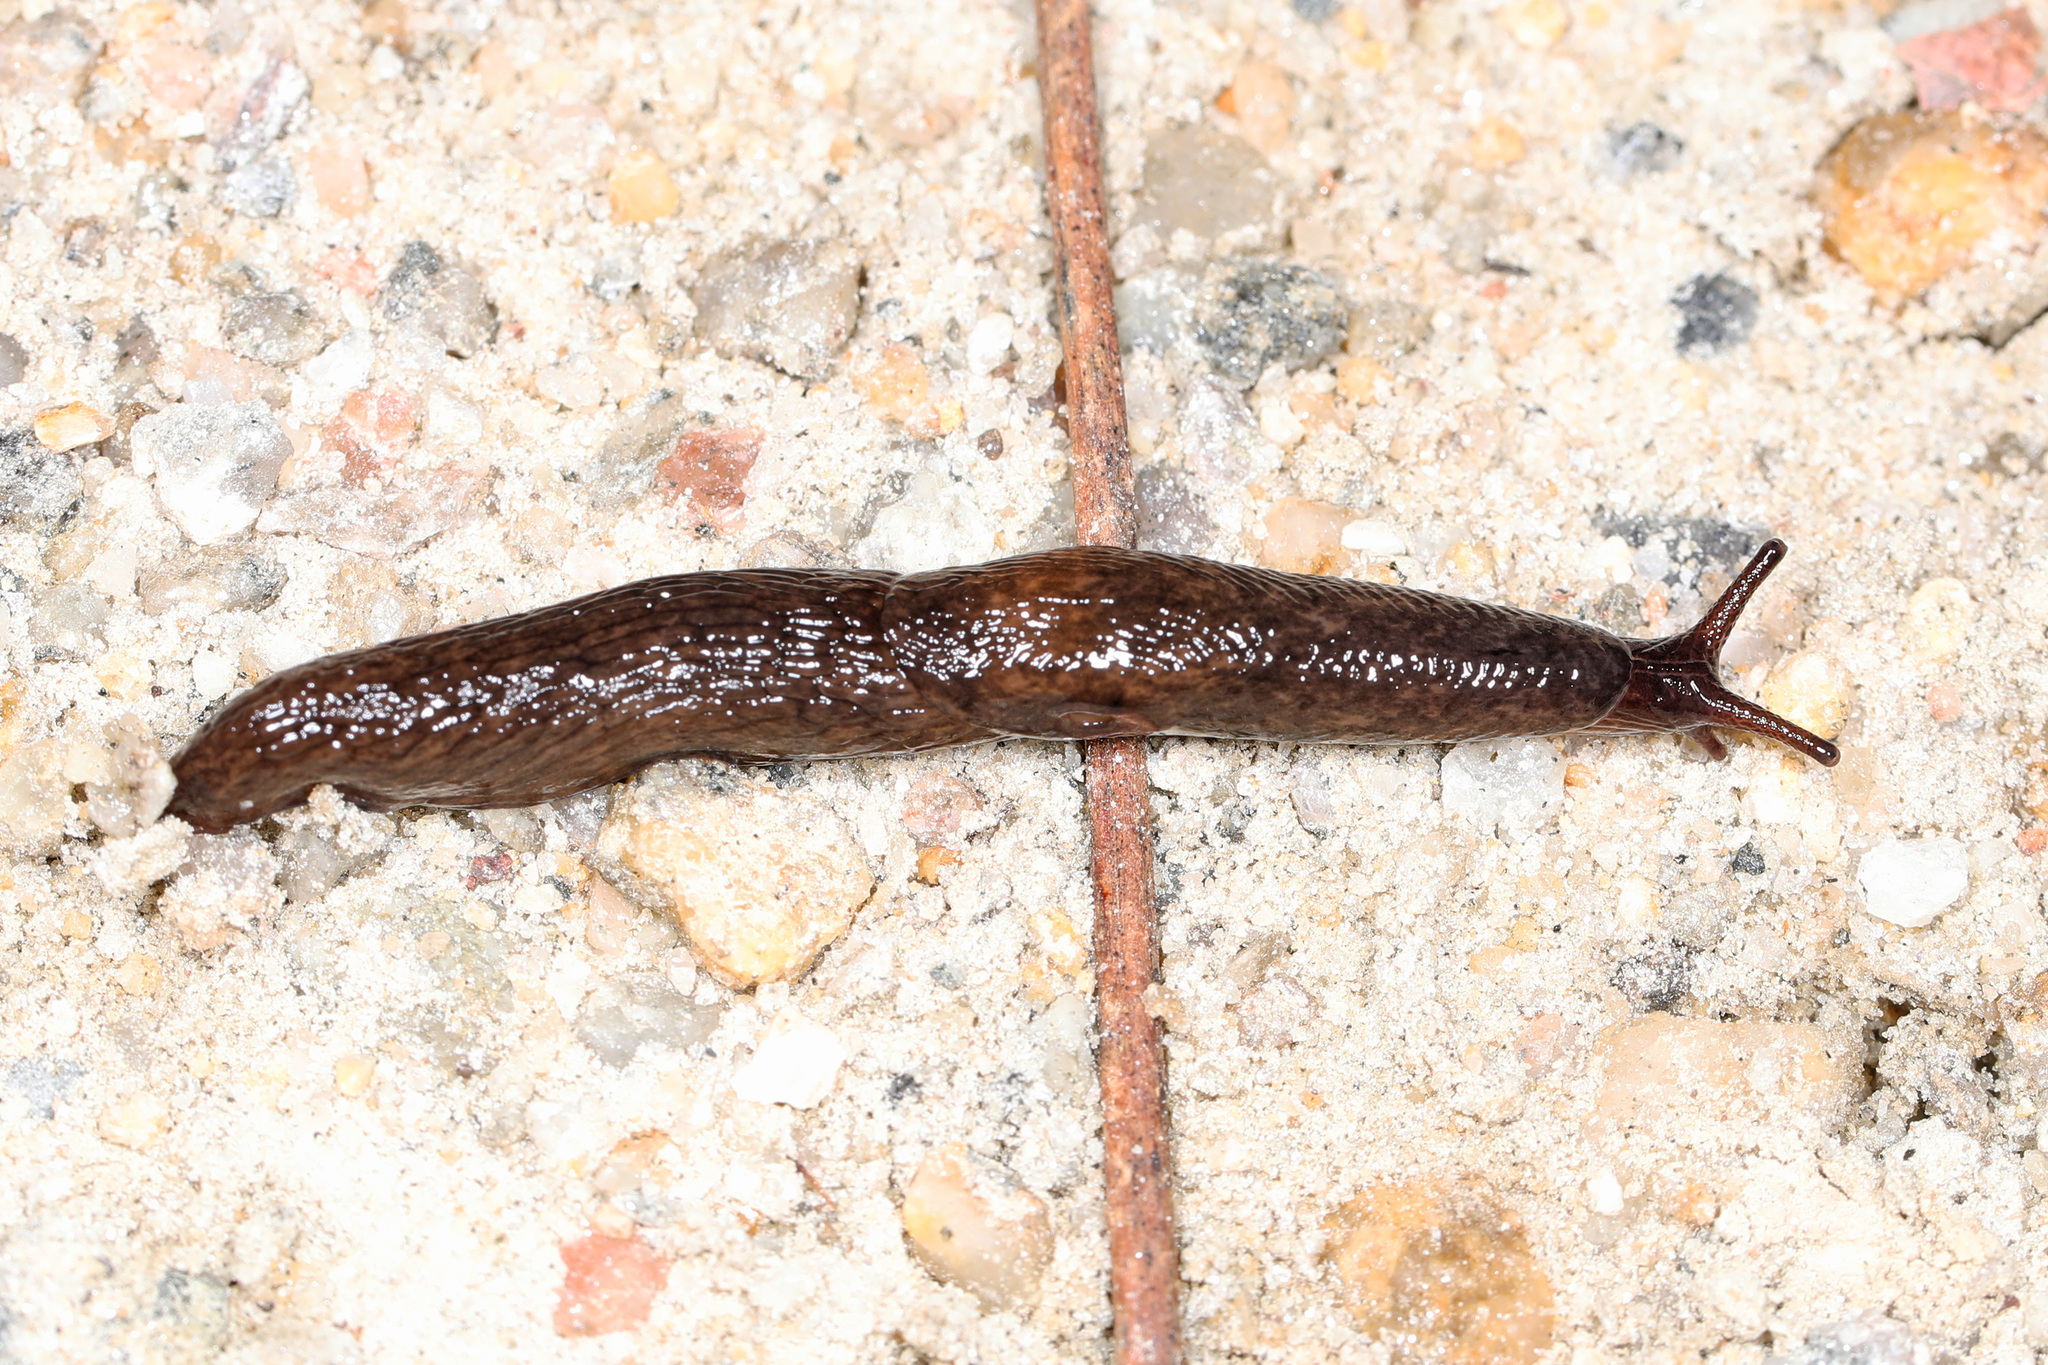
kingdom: Animalia
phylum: Mollusca
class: Gastropoda
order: Stylommatophora
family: Agriolimacidae
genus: Deroceras
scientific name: Deroceras reticulatum
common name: Gray field slug
